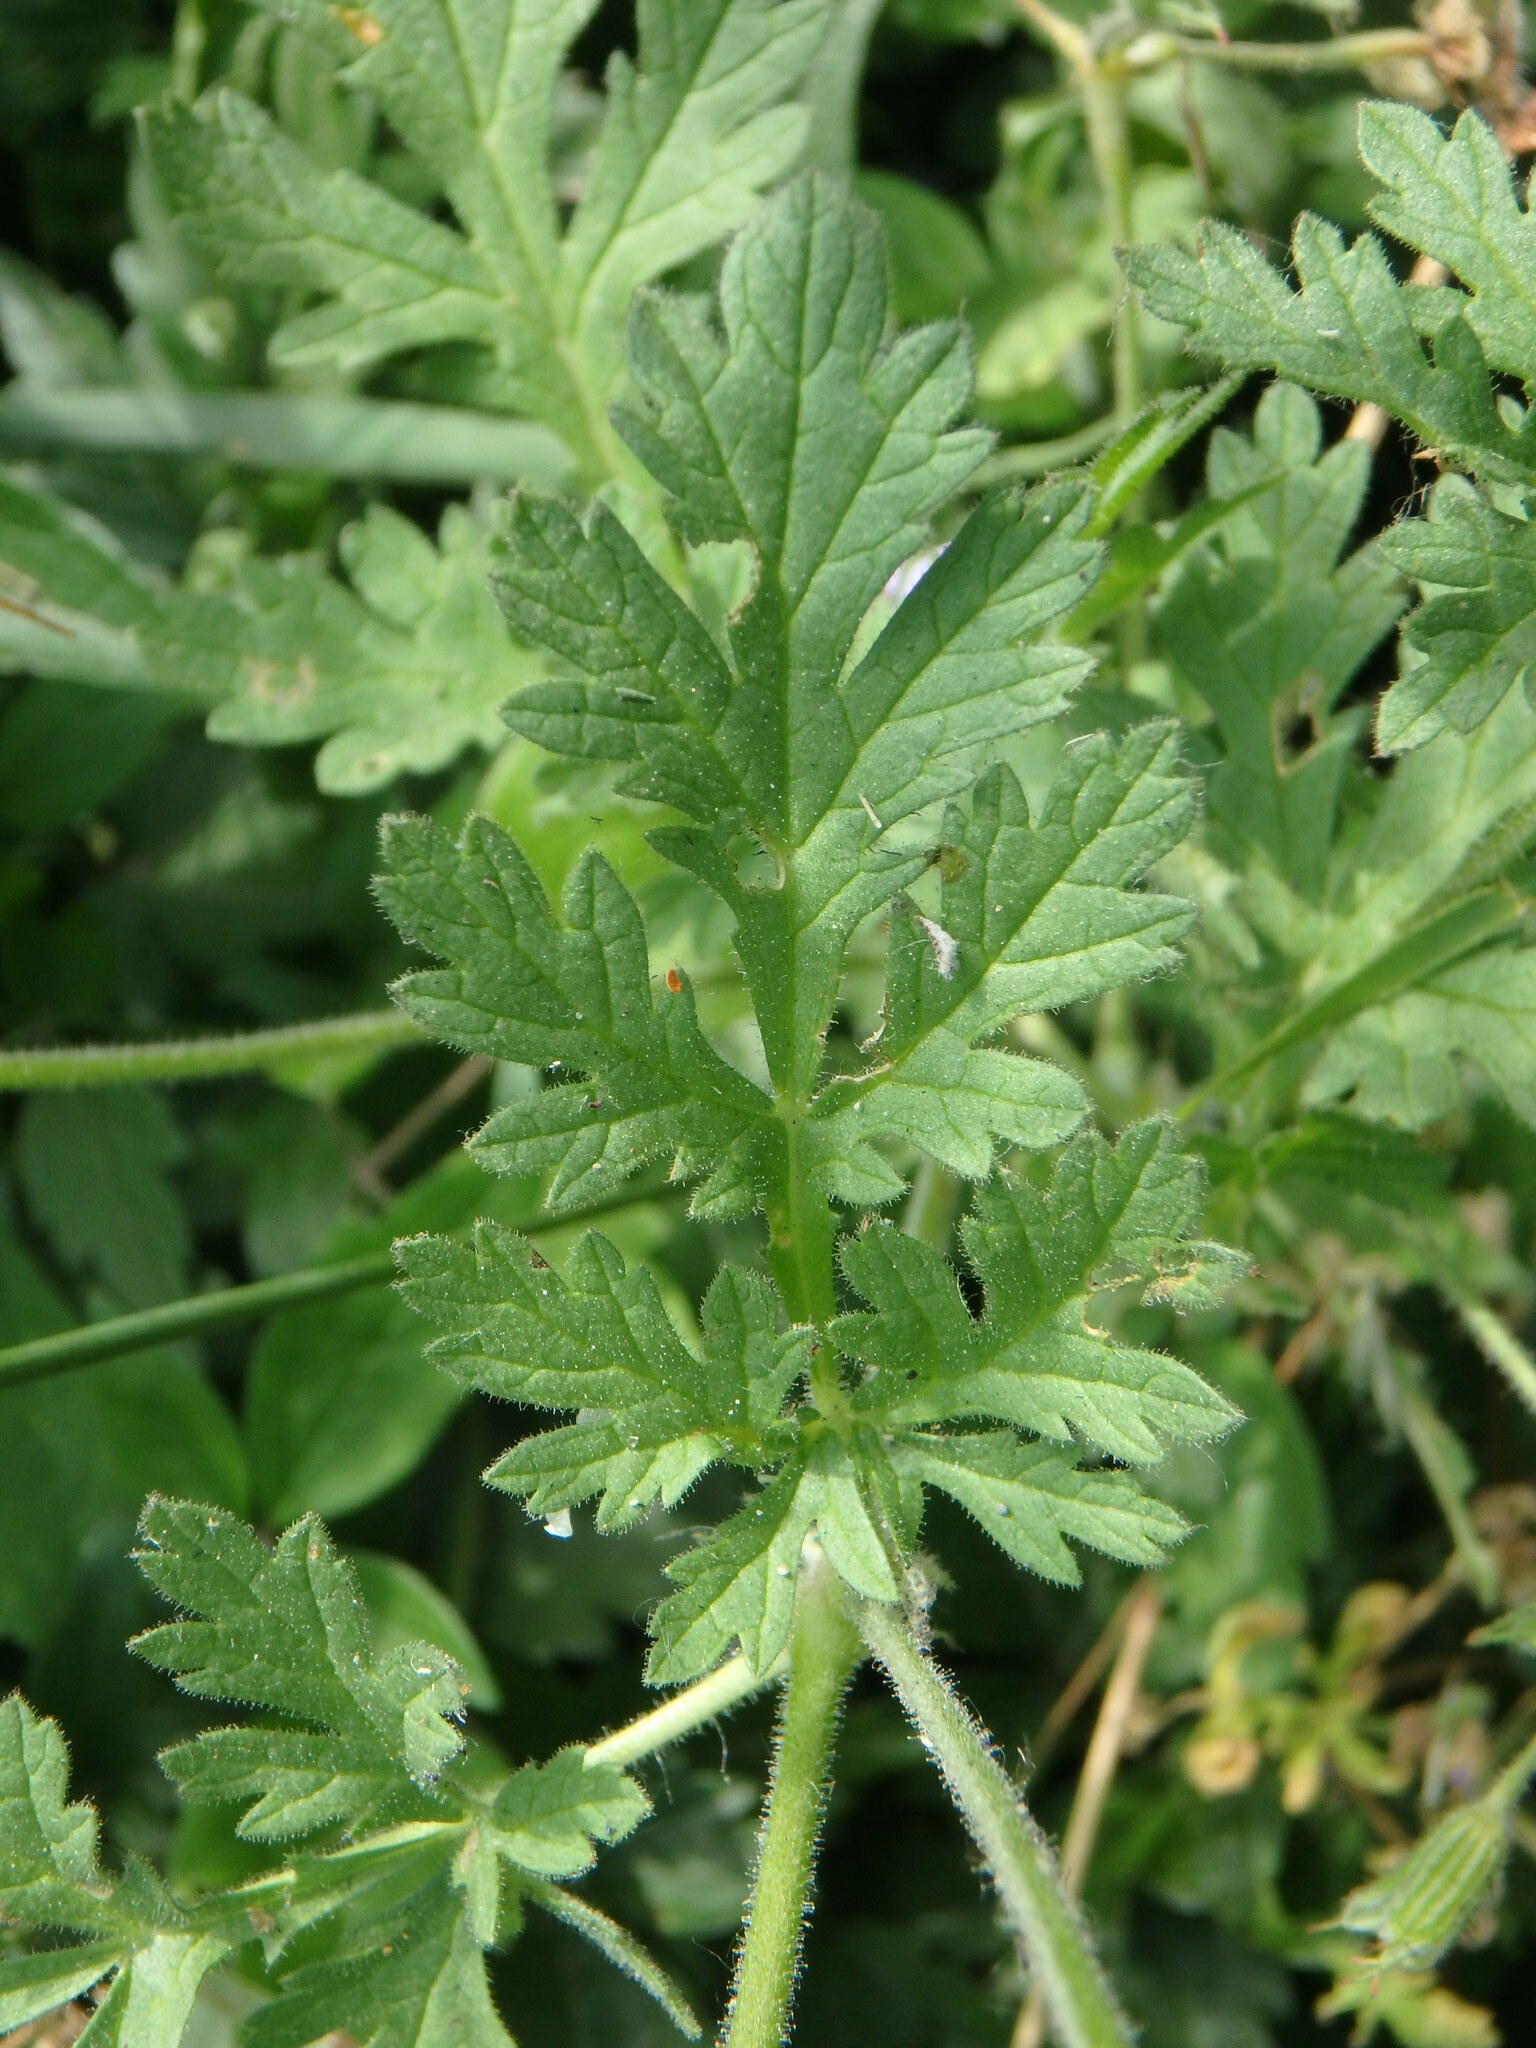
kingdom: Plantae
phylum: Tracheophyta
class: Magnoliopsida
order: Geraniales
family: Geraniaceae
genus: Erodium
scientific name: Erodium ciconium
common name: Common stork's bill
